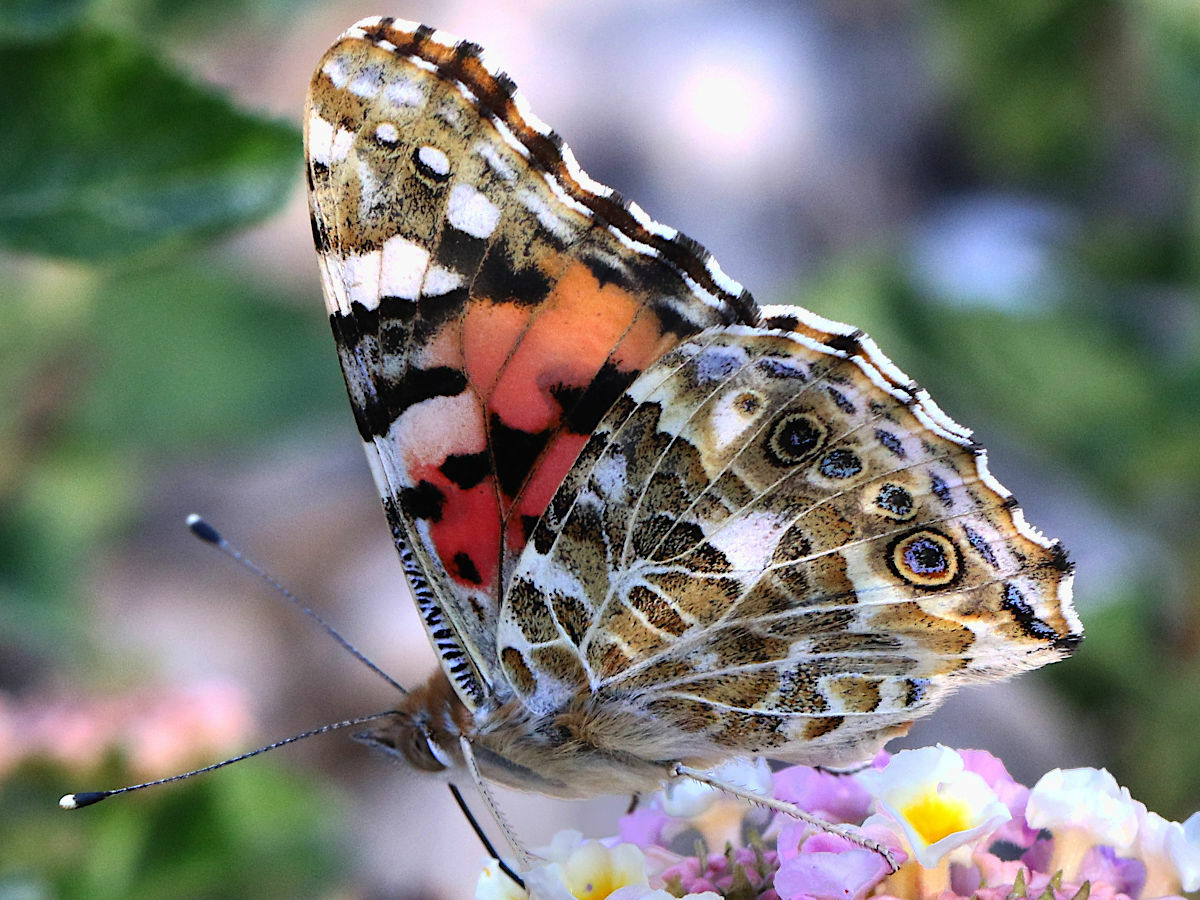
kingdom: Animalia
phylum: Arthropoda
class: Insecta
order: Lepidoptera
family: Nymphalidae
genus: Vanessa
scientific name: Vanessa cardui
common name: Painted lady
